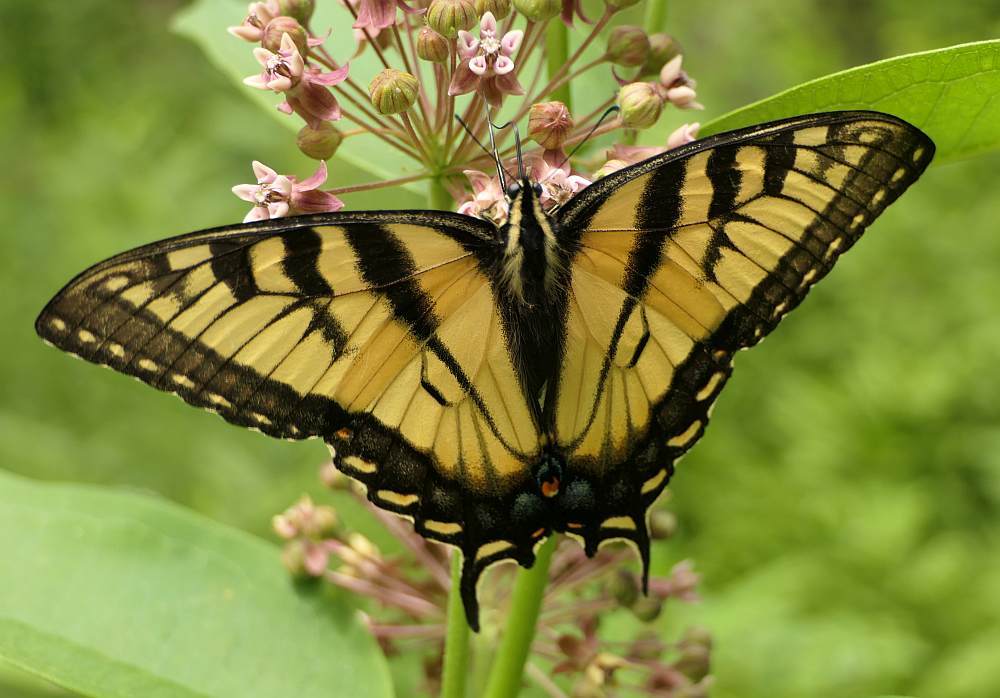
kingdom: Animalia
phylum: Arthropoda
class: Insecta
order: Lepidoptera
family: Papilionidae
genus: Papilio
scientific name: Papilio
